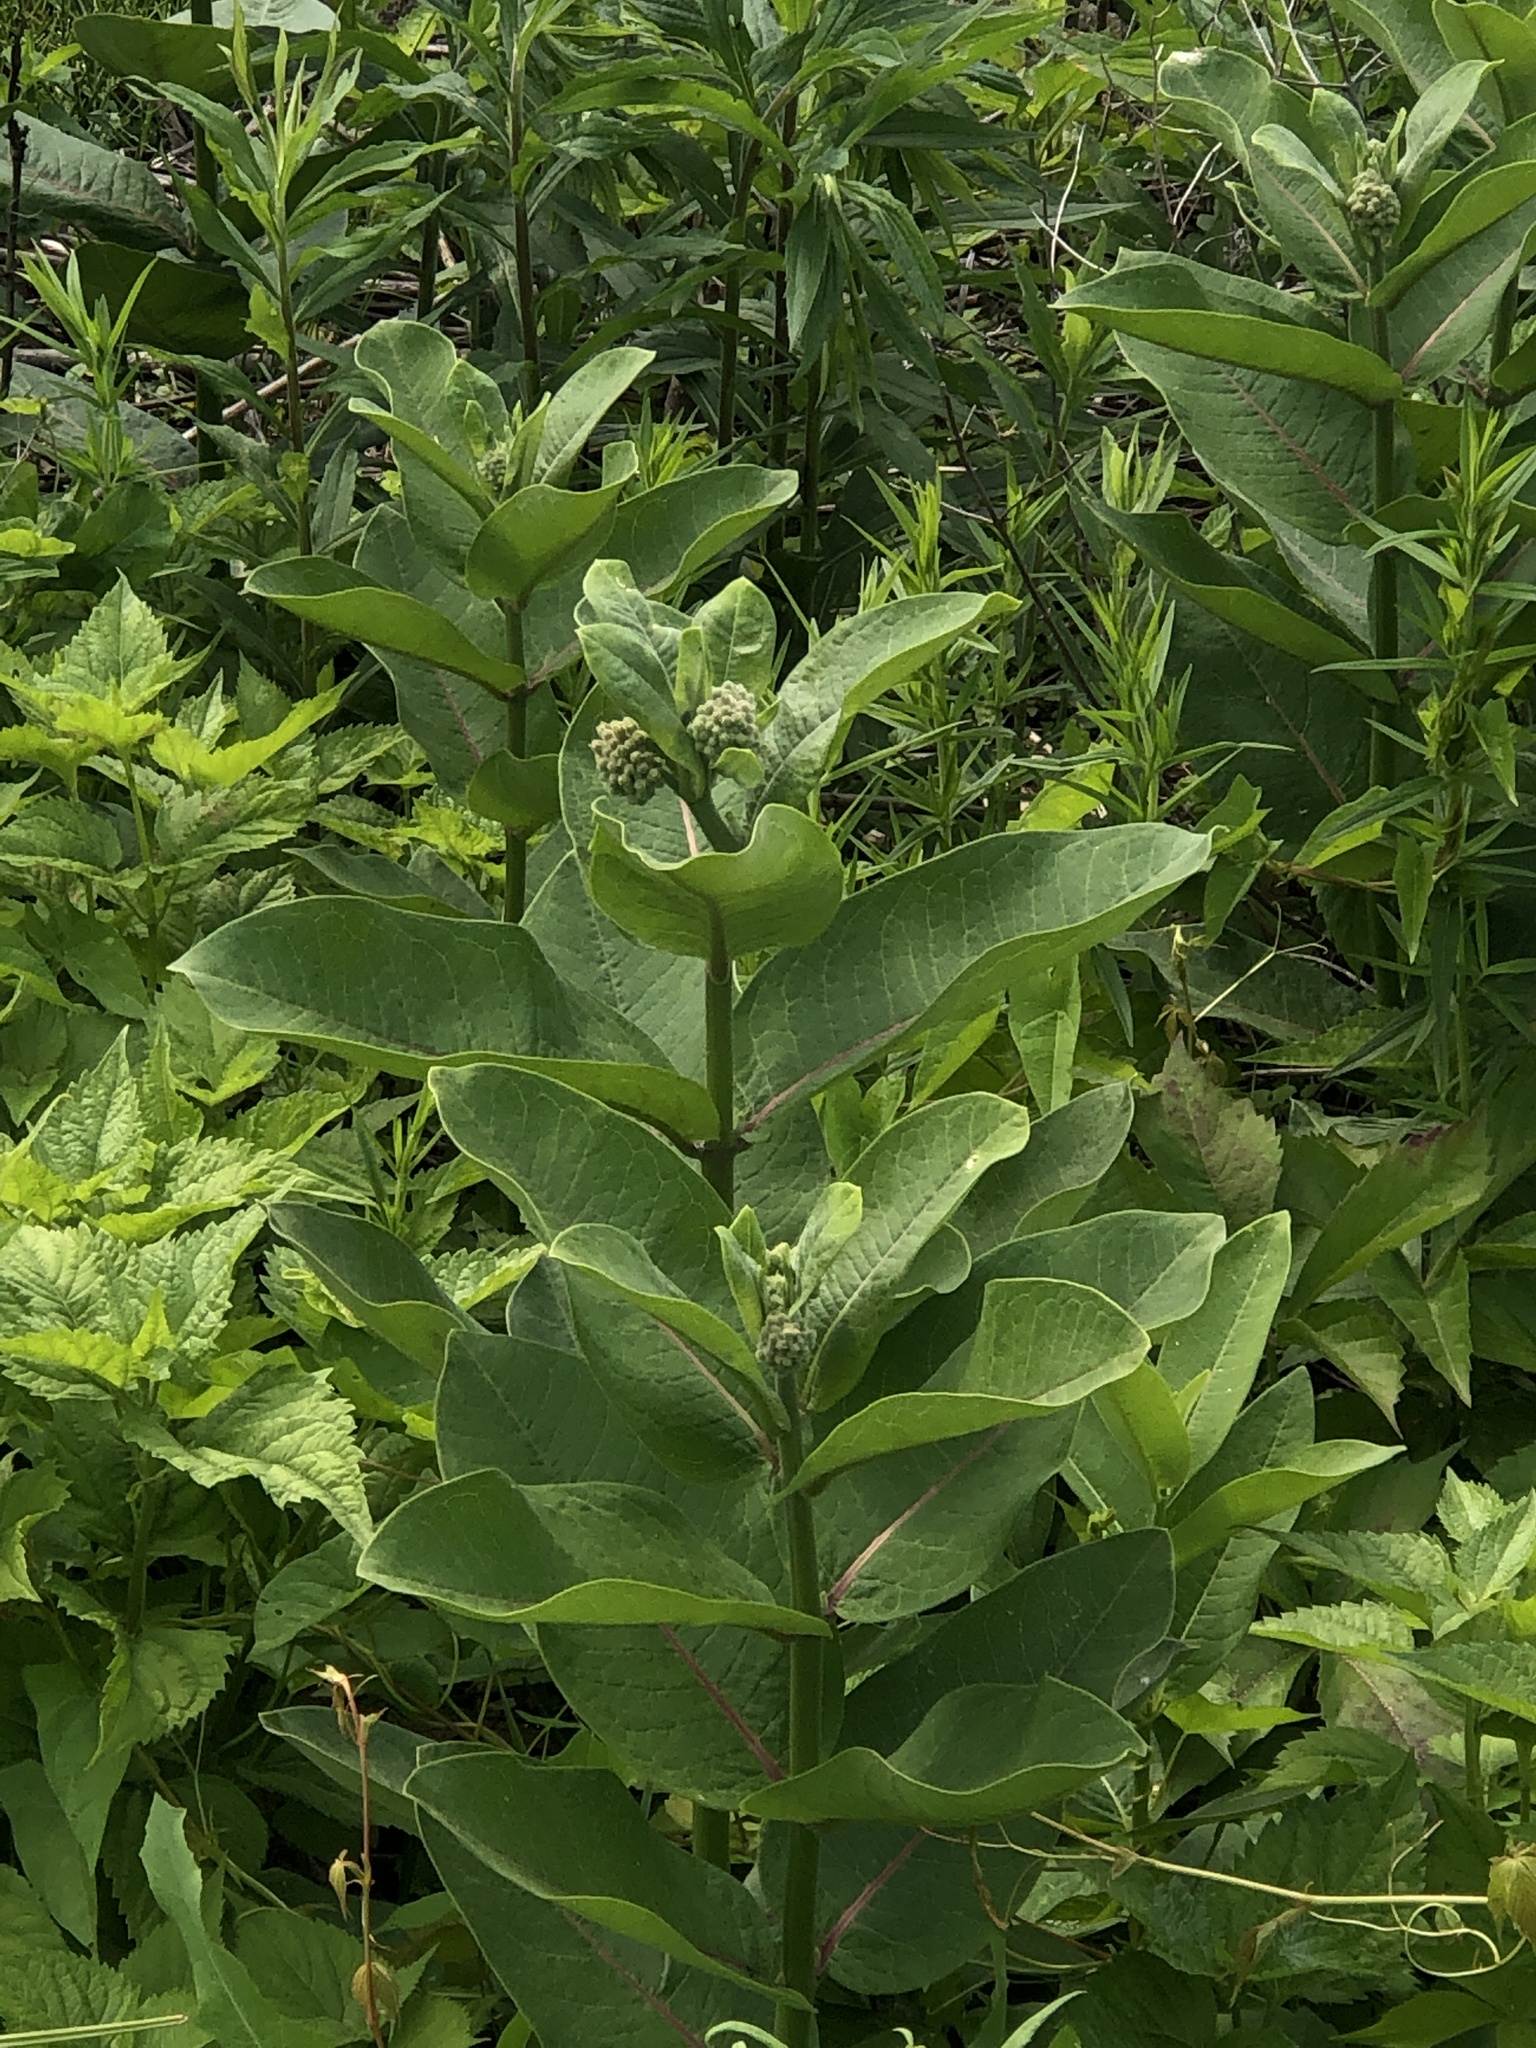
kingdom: Plantae
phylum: Tracheophyta
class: Magnoliopsida
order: Gentianales
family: Apocynaceae
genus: Asclepias
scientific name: Asclepias syriaca
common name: Common milkweed
